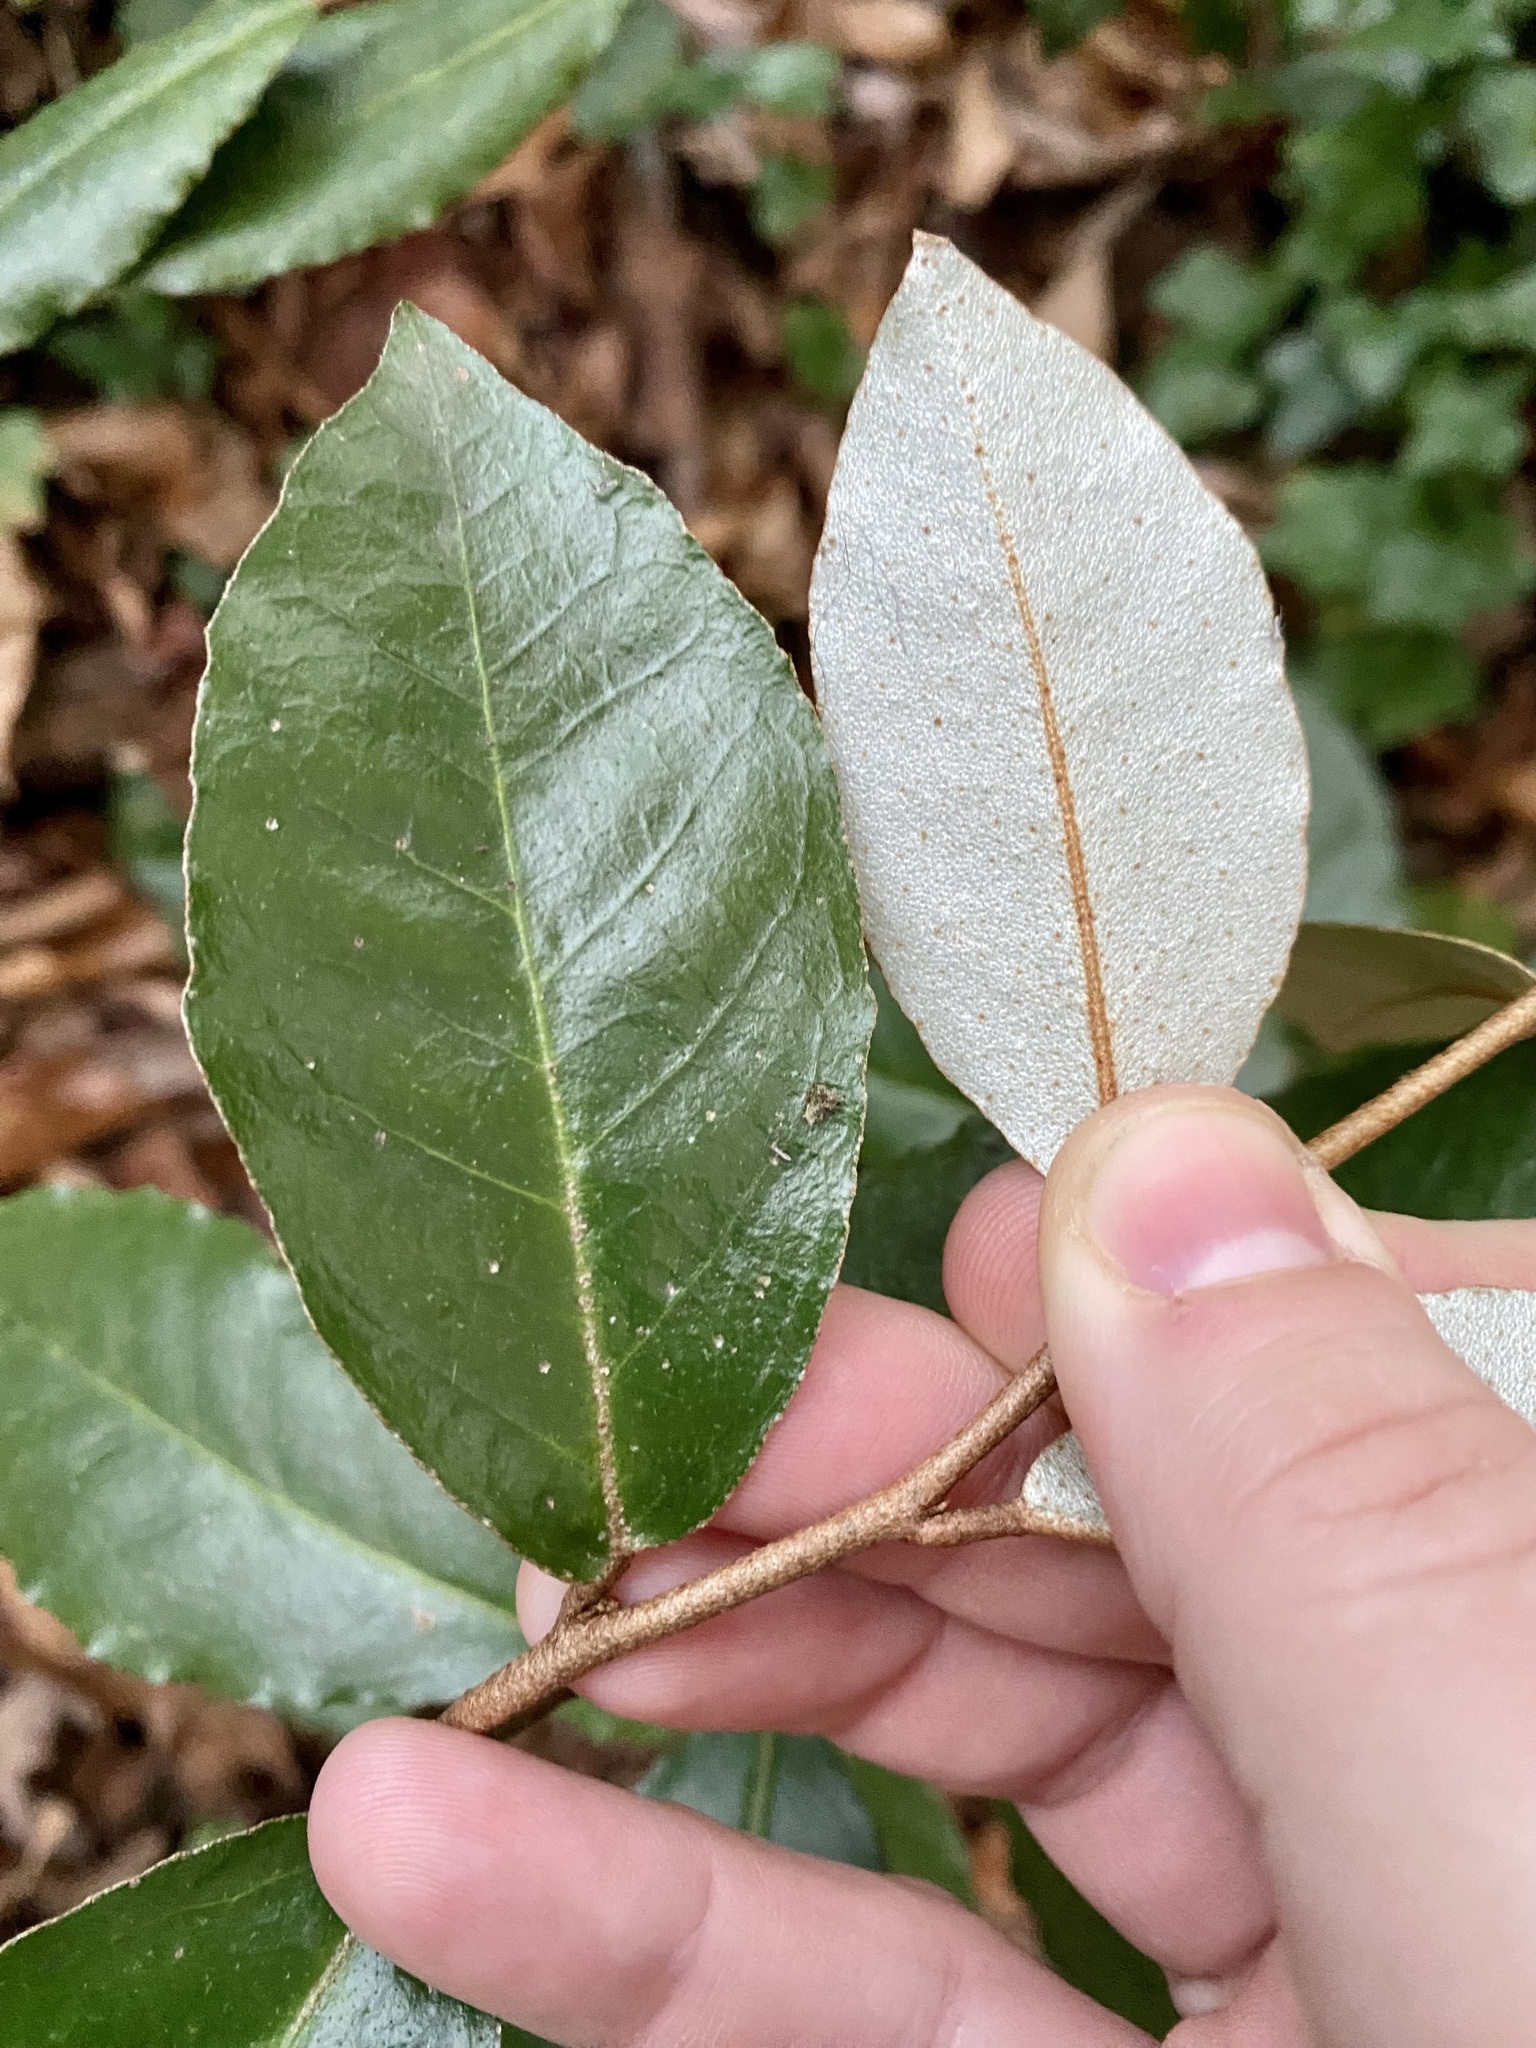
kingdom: Plantae
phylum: Tracheophyta
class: Magnoliopsida
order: Rosales
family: Elaeagnaceae
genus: Elaeagnus
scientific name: Elaeagnus pungens
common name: Spiny oleaster
